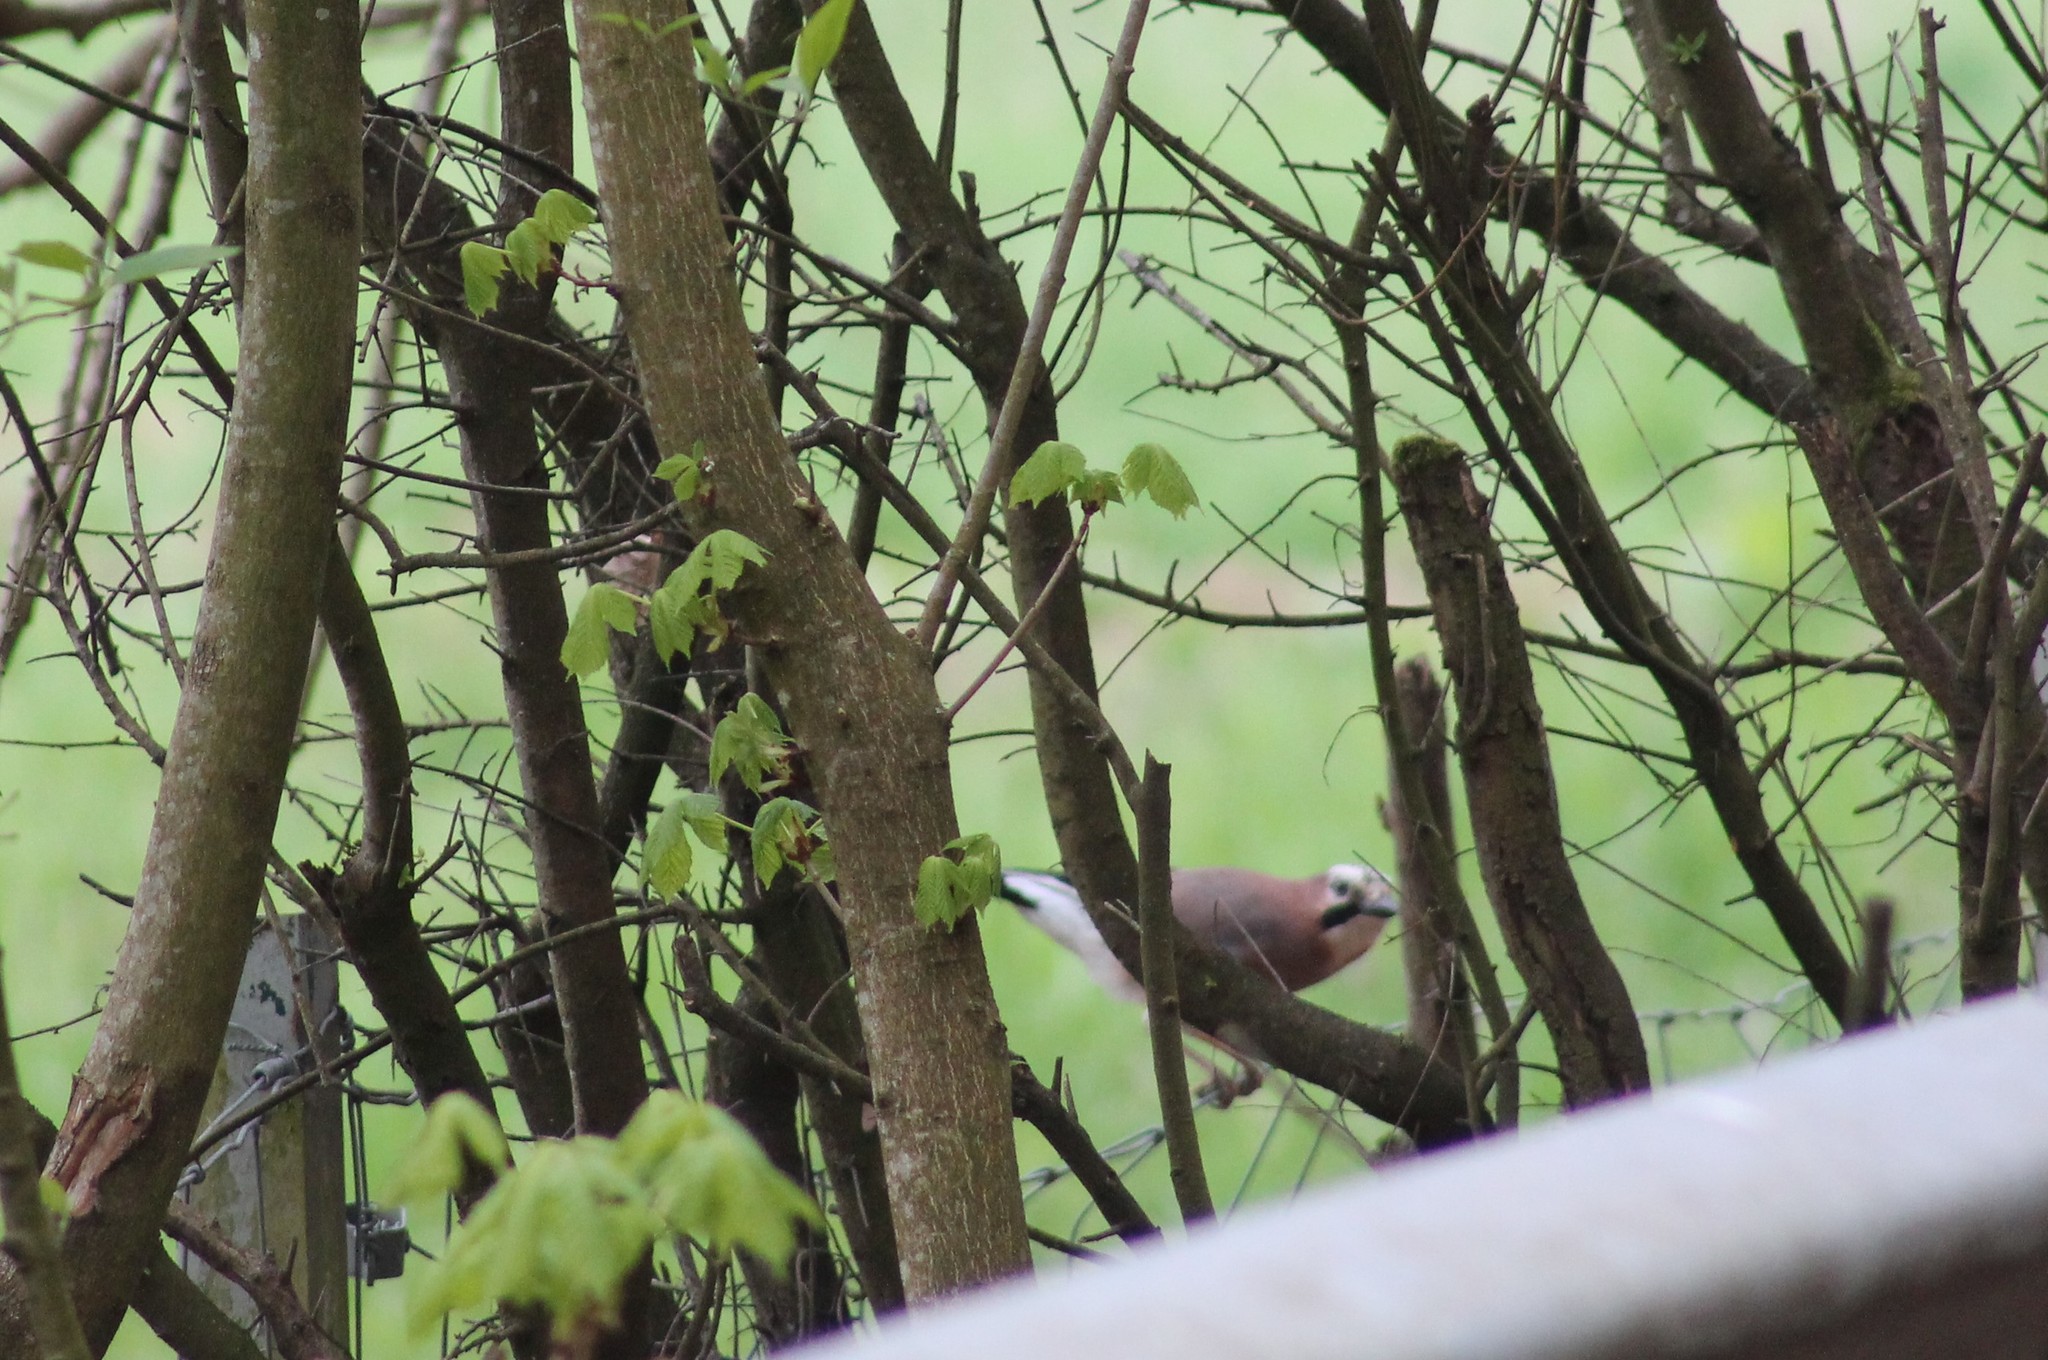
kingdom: Animalia
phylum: Chordata
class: Aves
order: Passeriformes
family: Corvidae
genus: Garrulus
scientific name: Garrulus glandarius
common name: Eurasian jay
